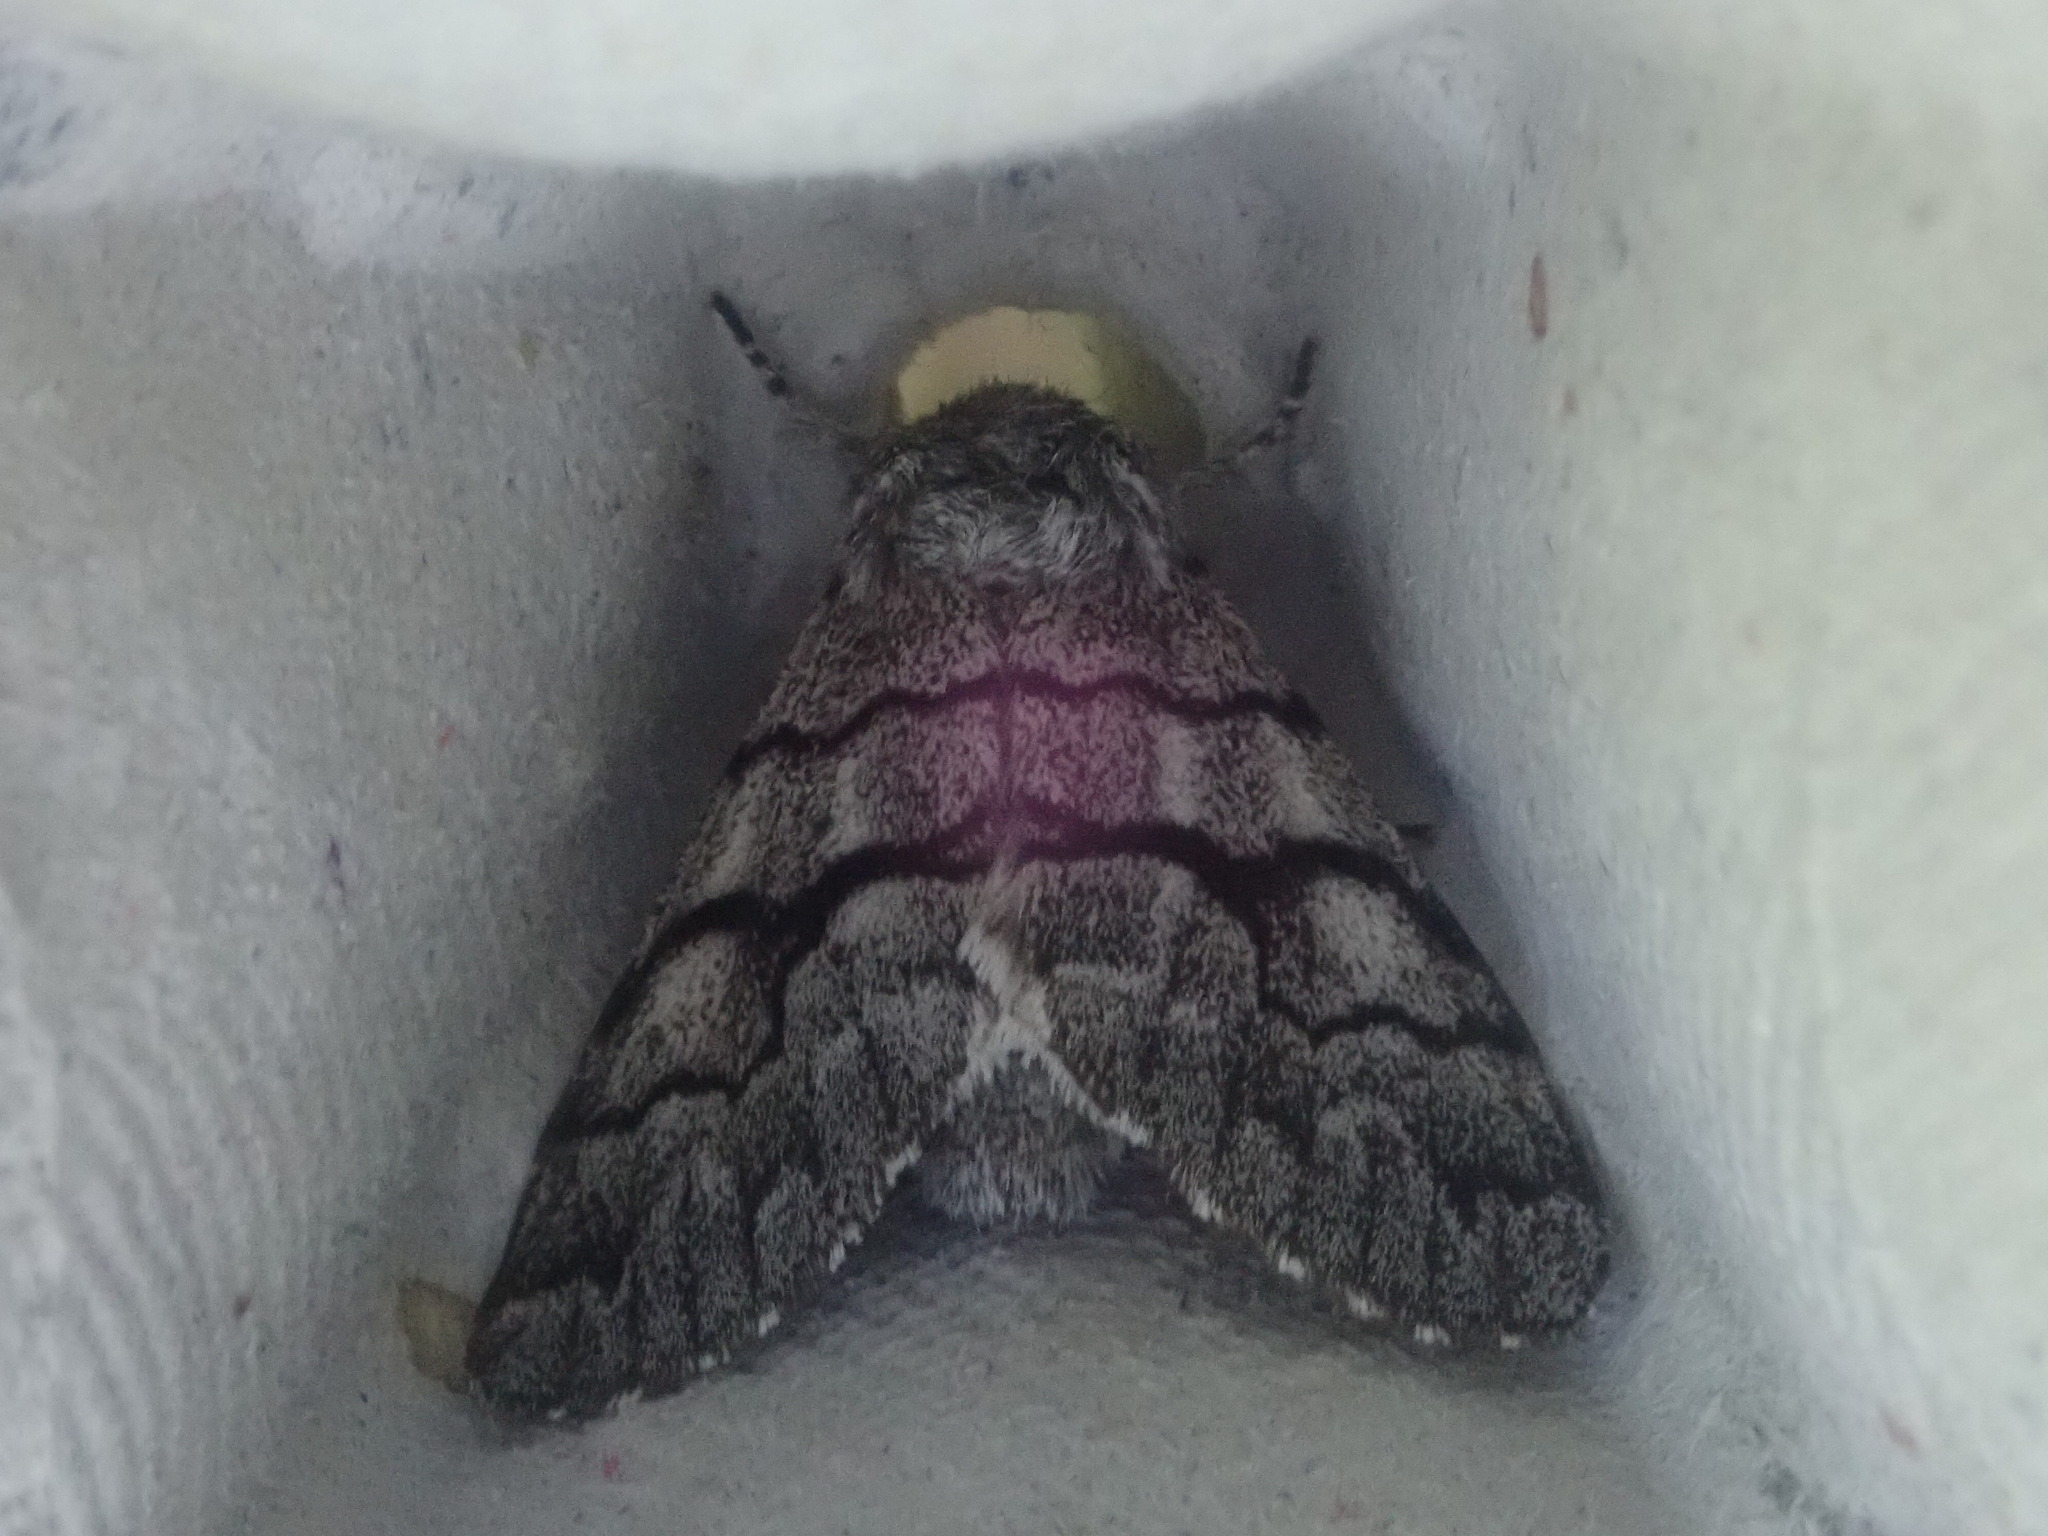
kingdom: Animalia
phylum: Arthropoda
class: Insecta
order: Lepidoptera
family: Noctuidae
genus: Panthea
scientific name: Panthea furcilla
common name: Eastern panthea moth
